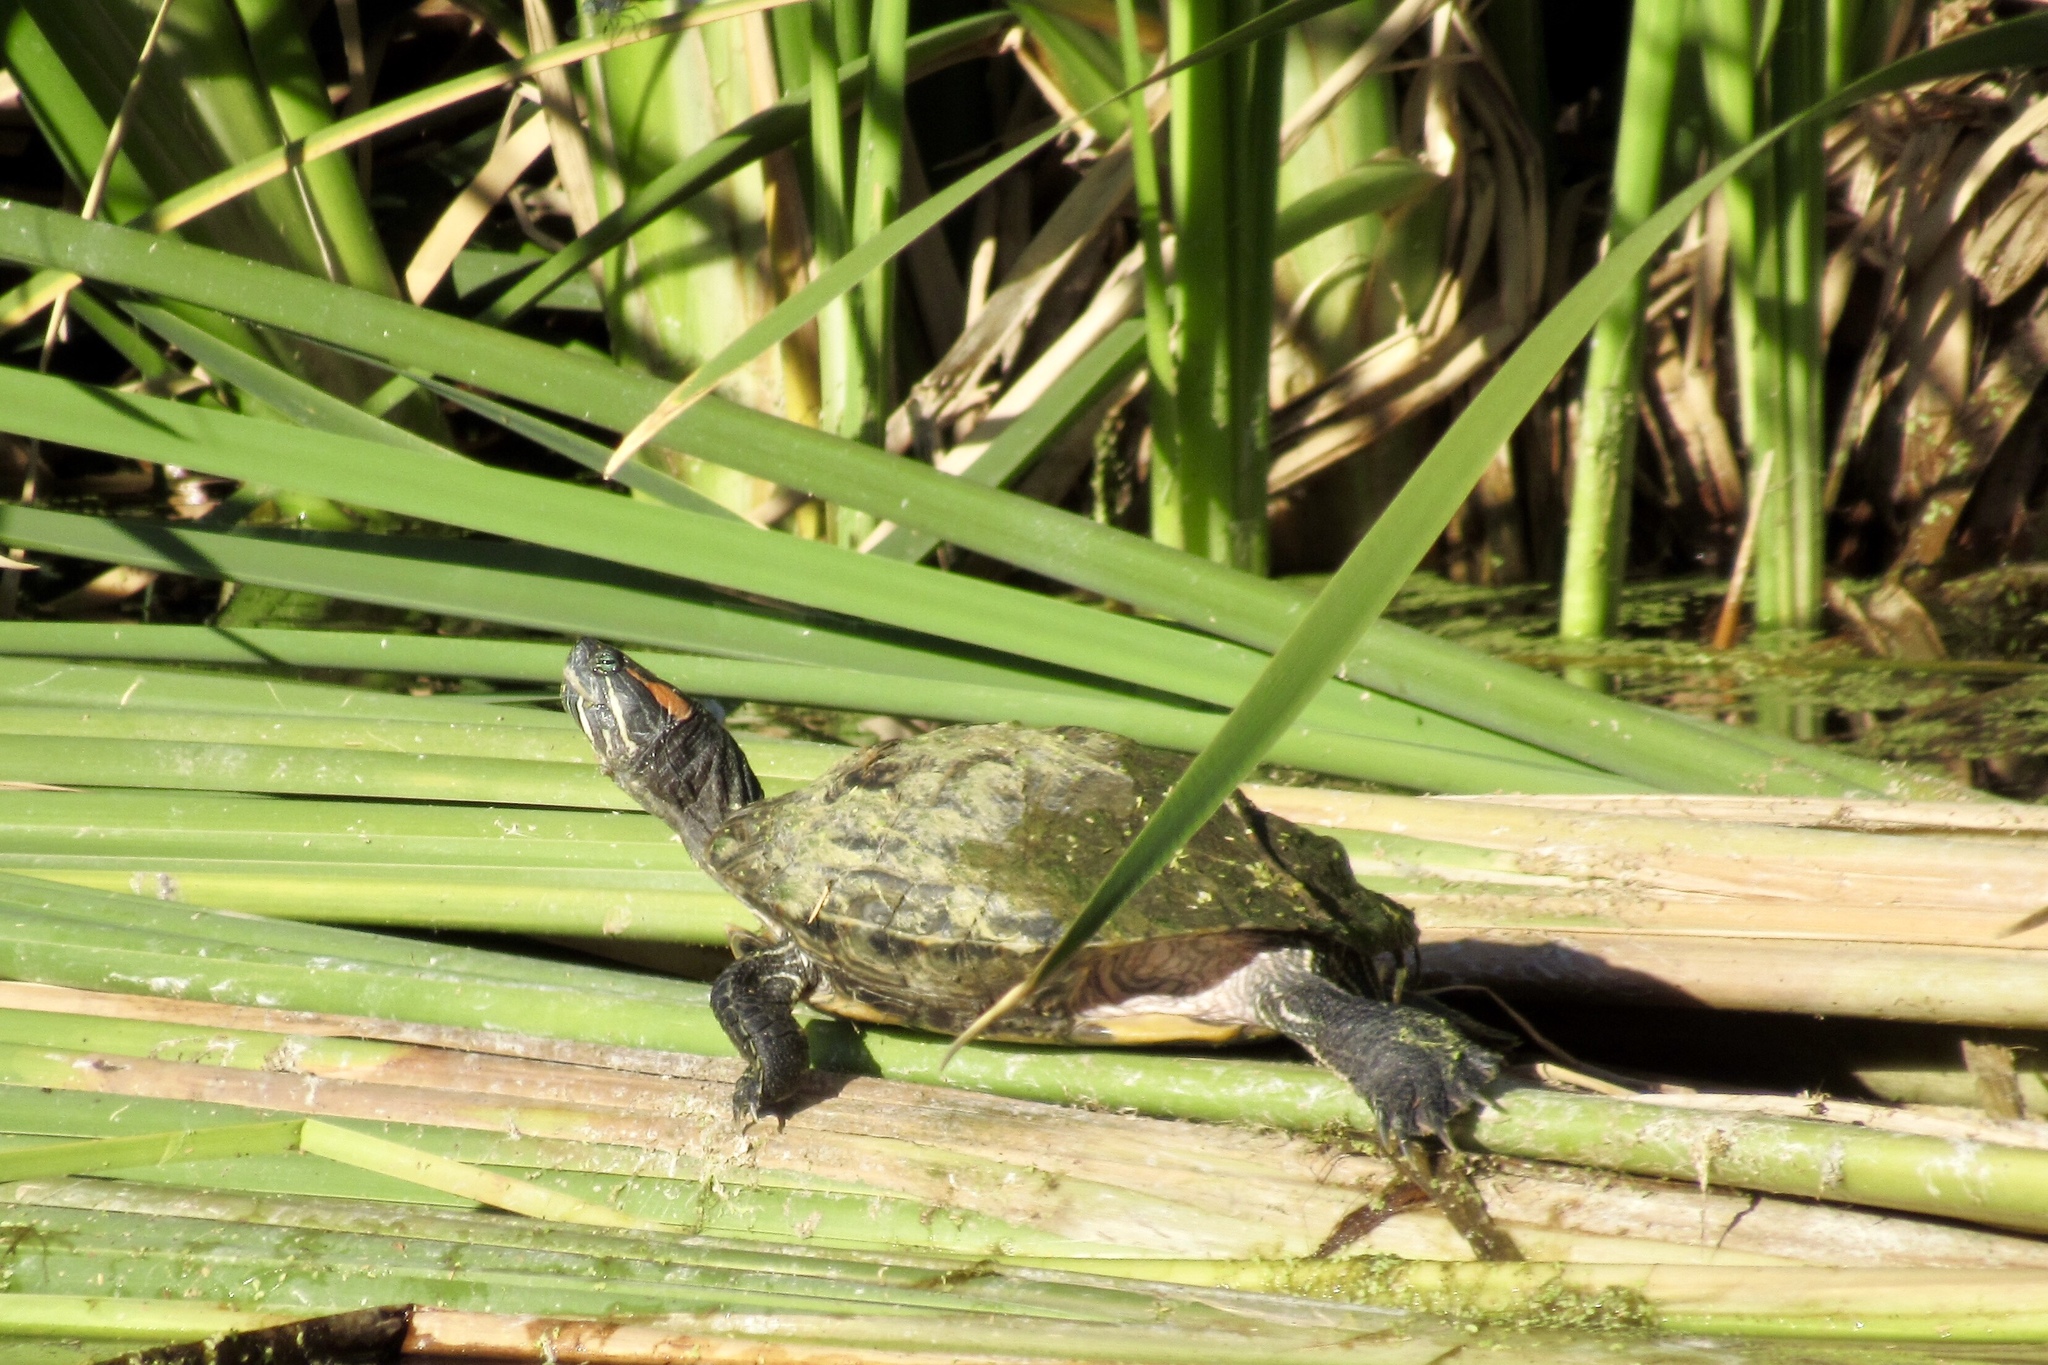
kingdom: Animalia
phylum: Chordata
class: Testudines
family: Emydidae
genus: Trachemys
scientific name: Trachemys scripta
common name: Slider
